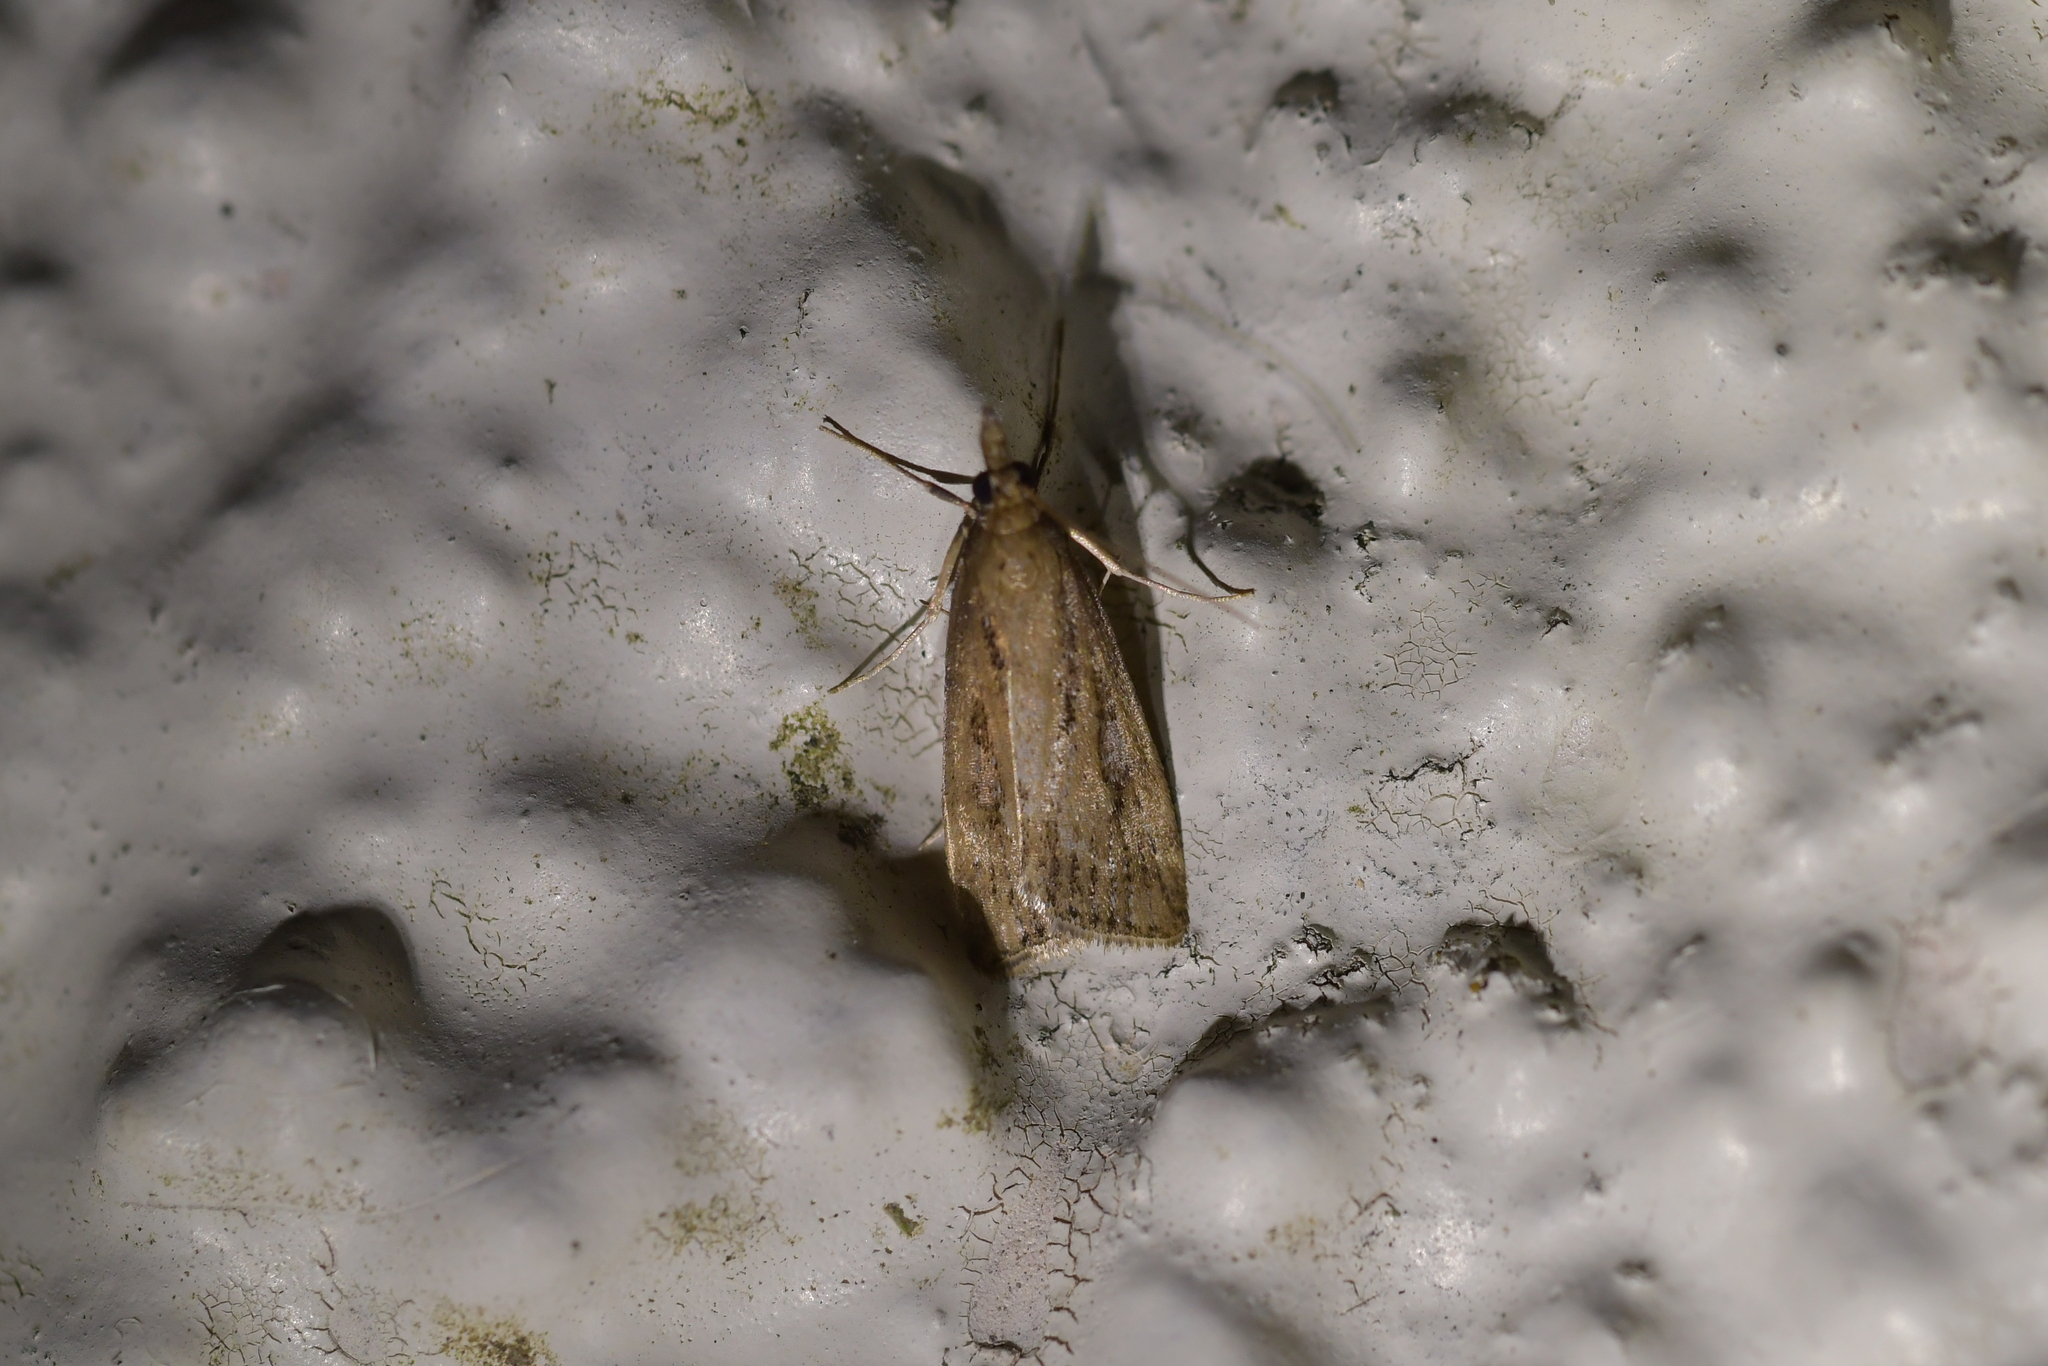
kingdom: Animalia
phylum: Arthropoda
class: Insecta
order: Lepidoptera
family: Crambidae
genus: Eudonia
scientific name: Eudonia octophora
